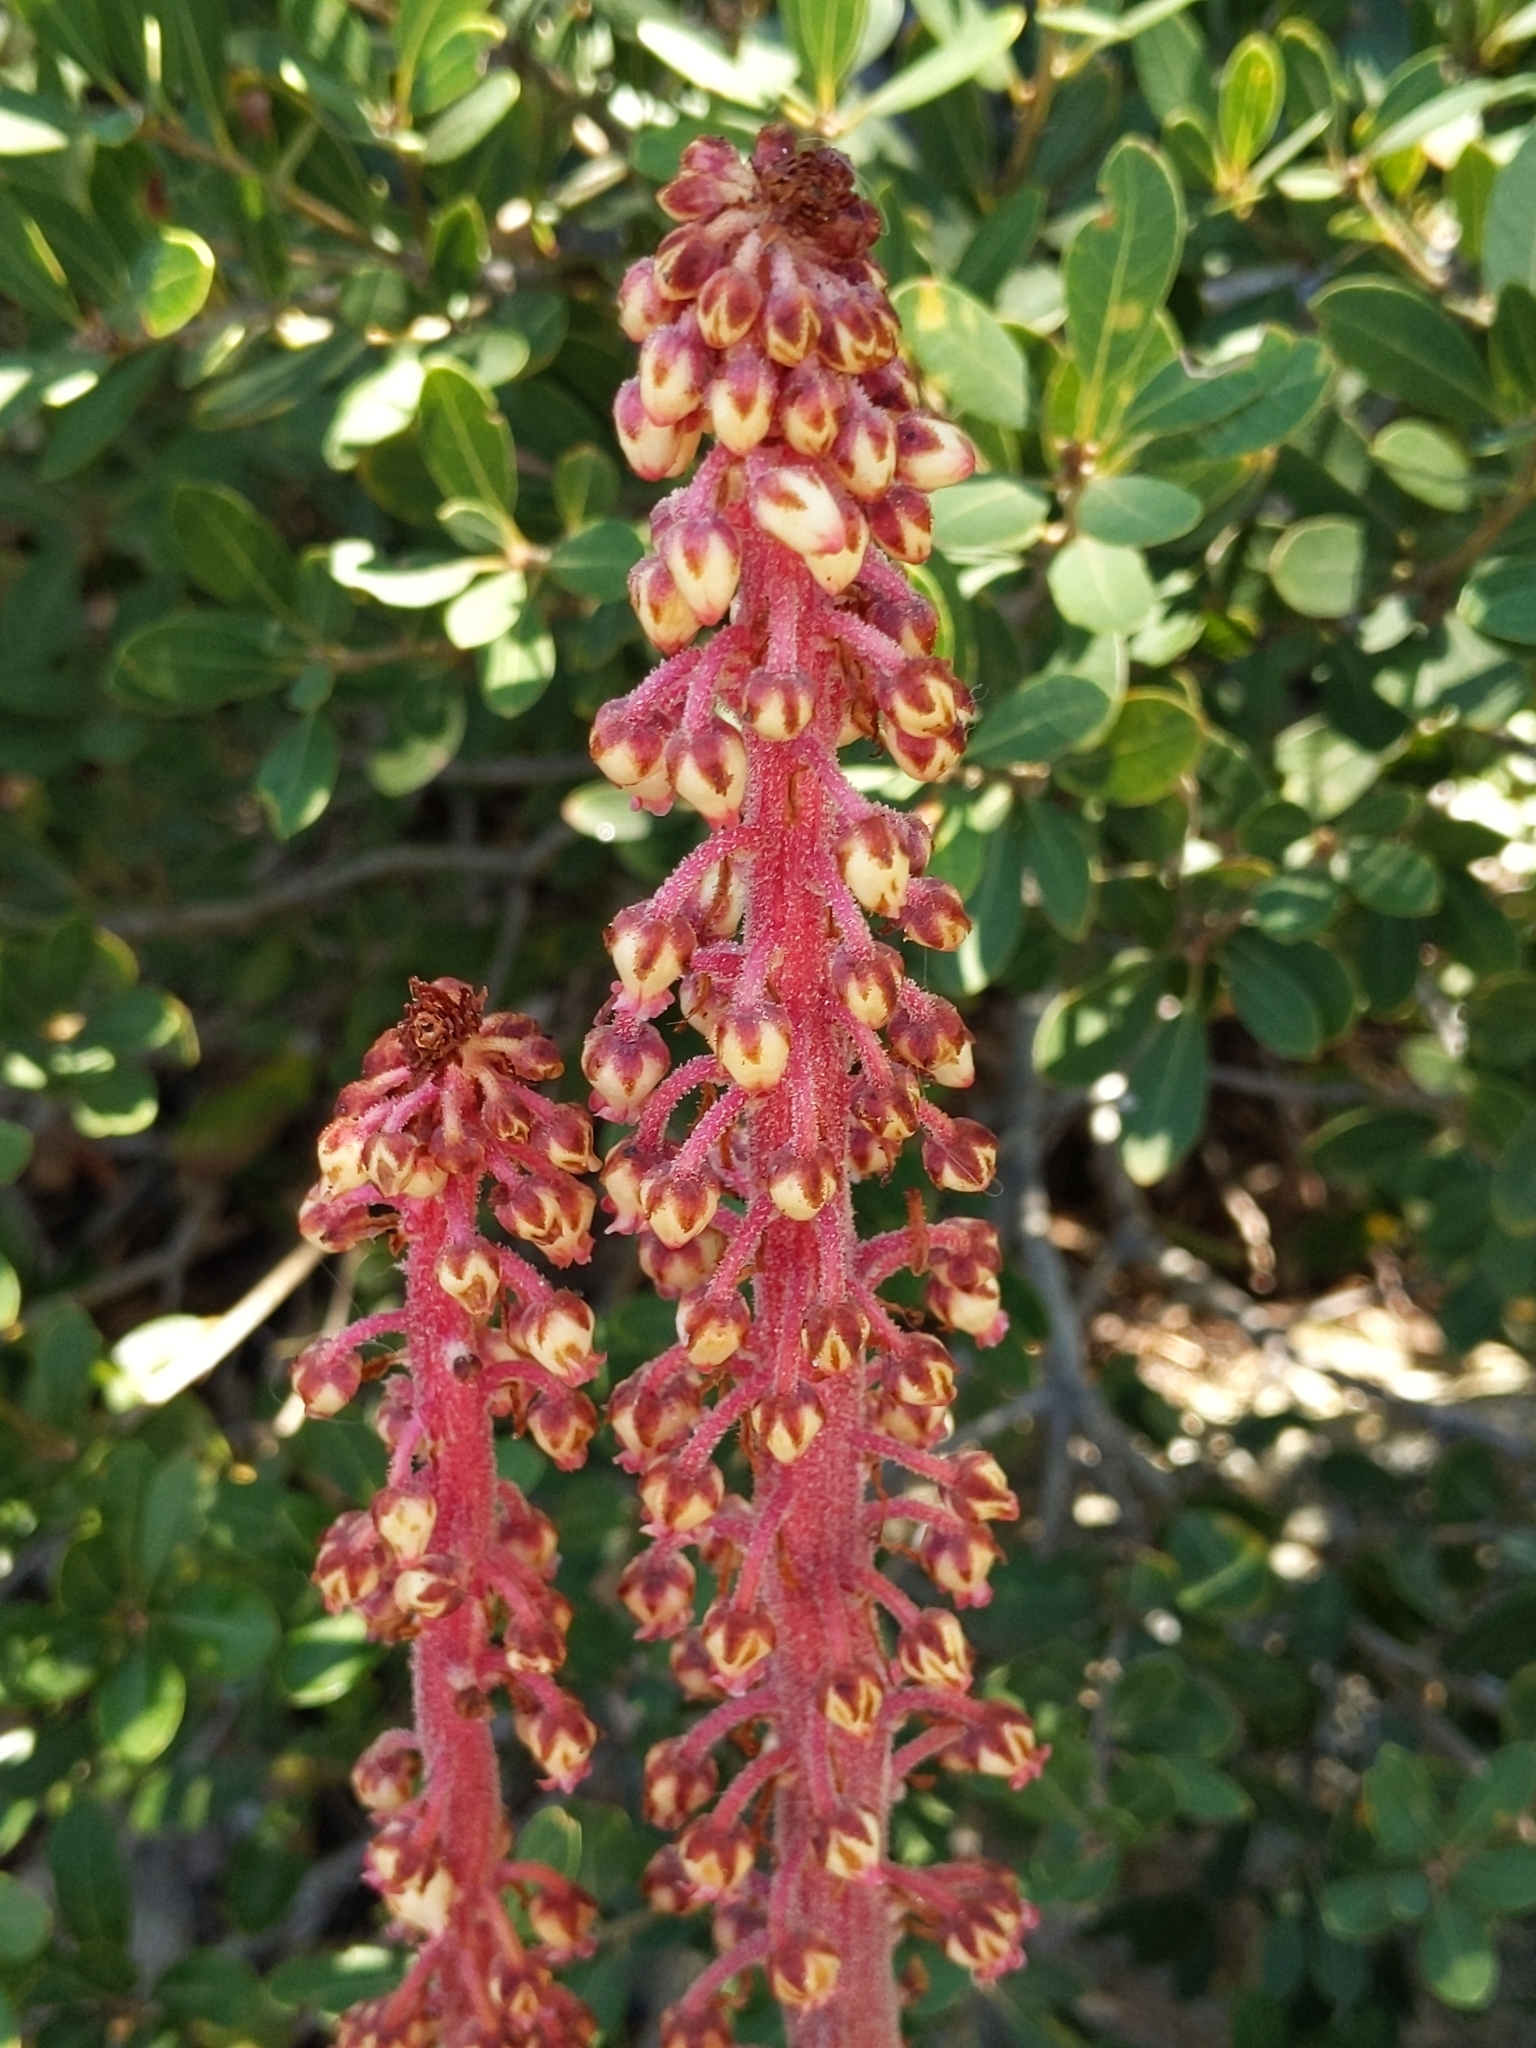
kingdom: Plantae
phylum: Tracheophyta
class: Magnoliopsida
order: Ericales
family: Ericaceae
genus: Pterospora
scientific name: Pterospora andromedea
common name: Giant bird's-nest
